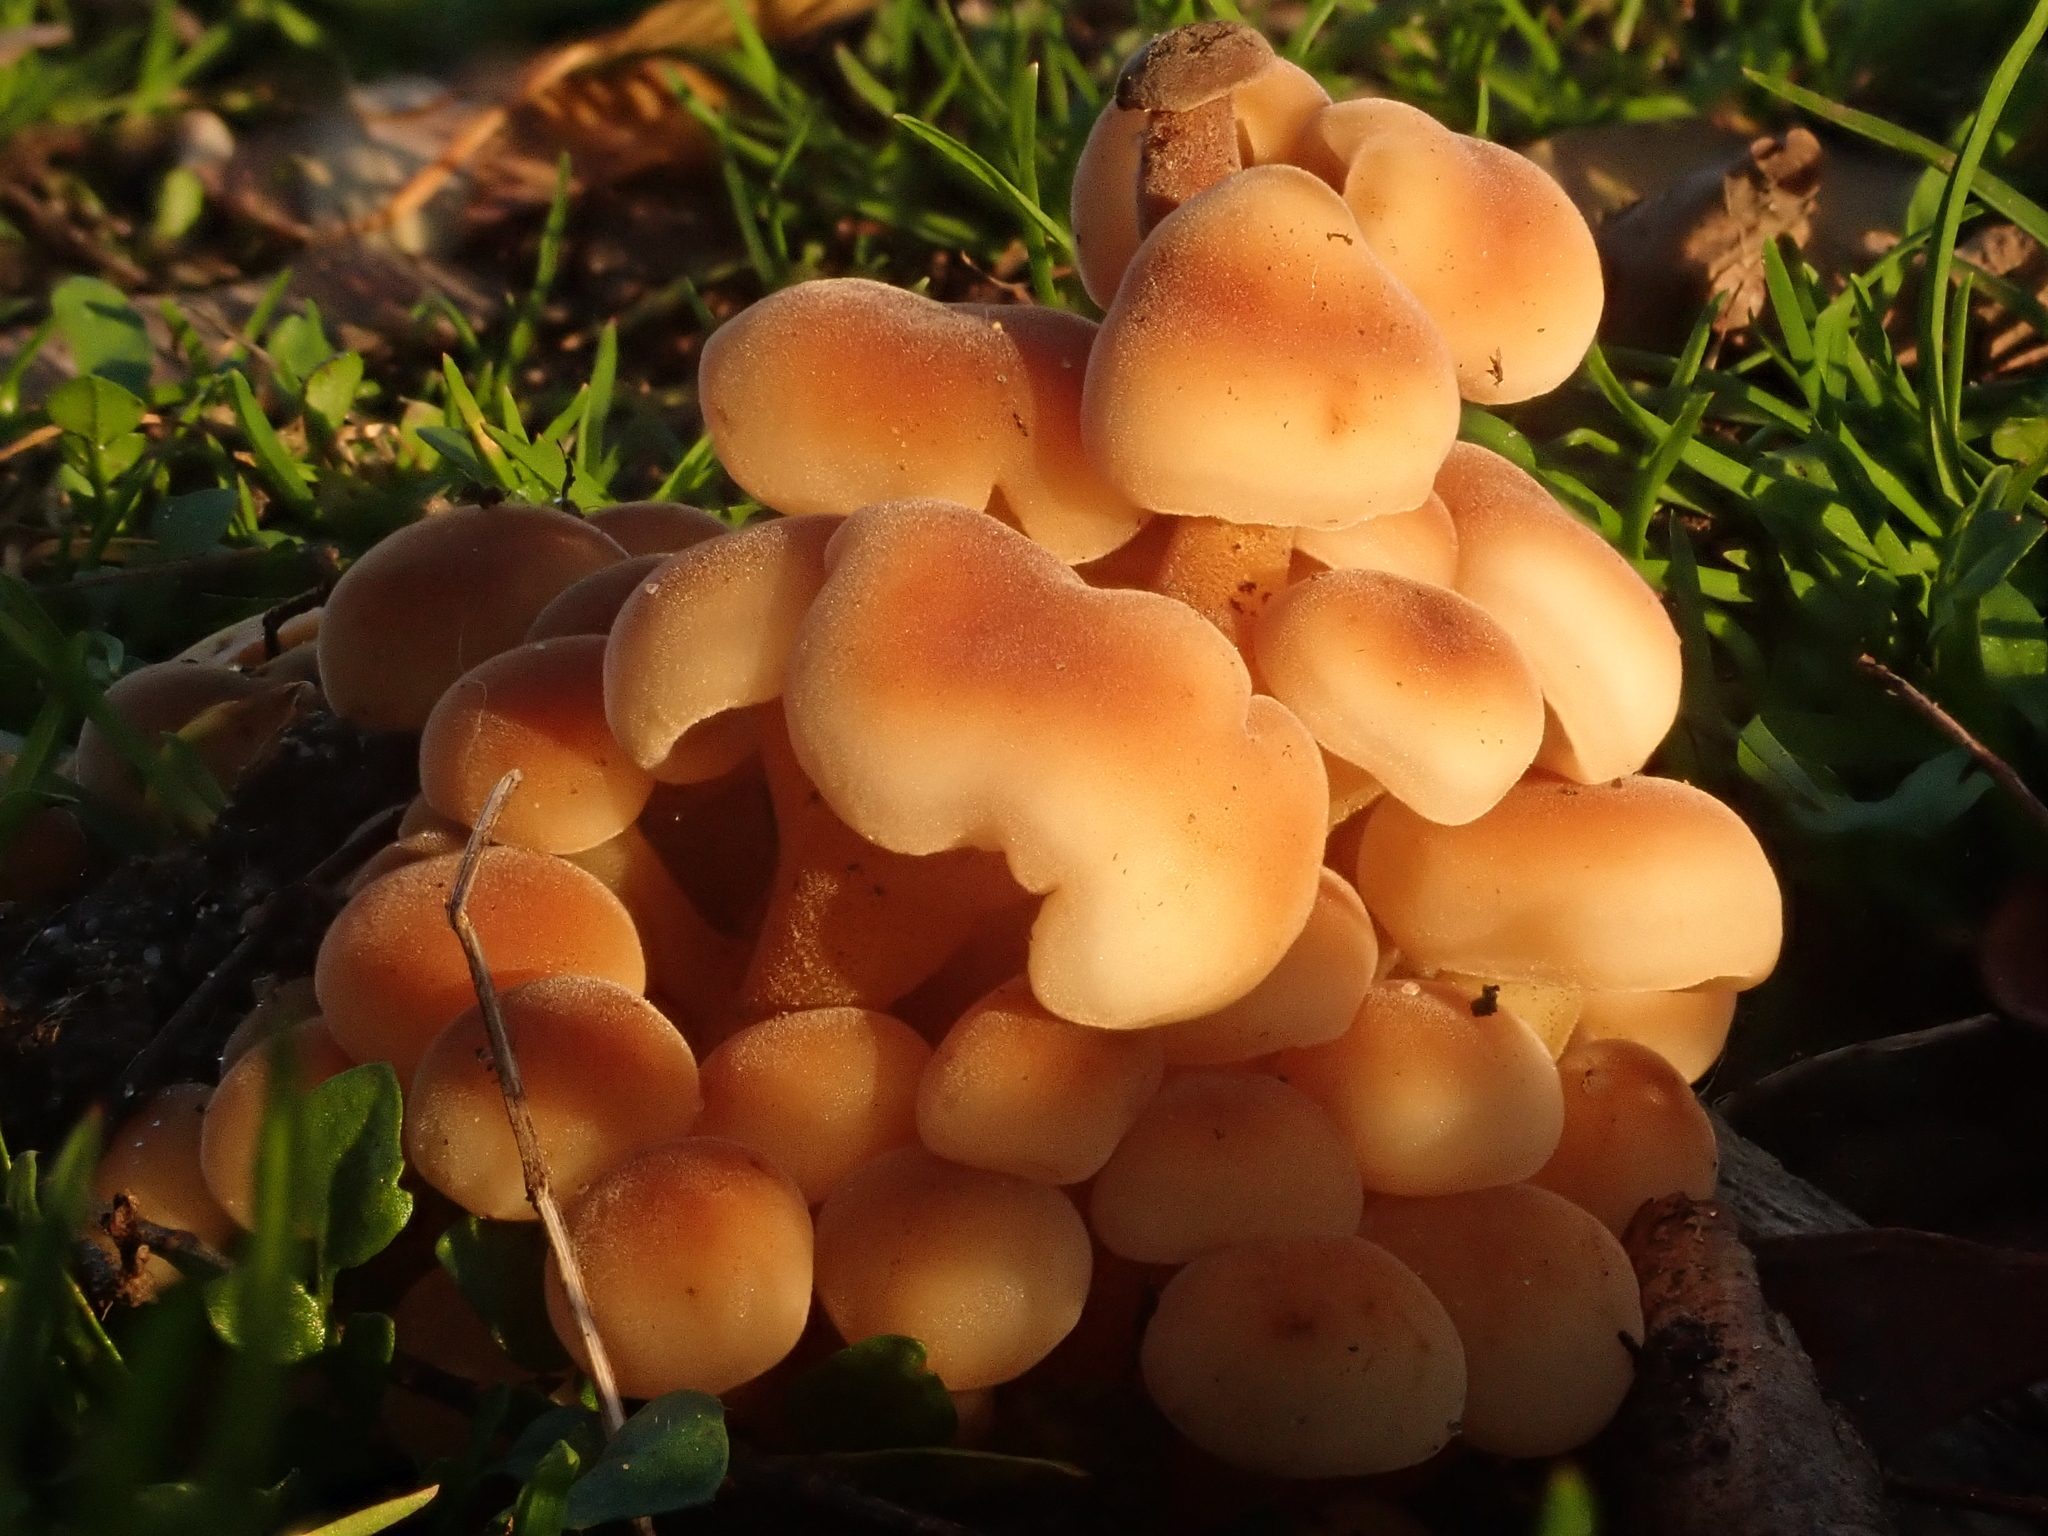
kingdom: Fungi
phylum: Basidiomycota
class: Agaricomycetes
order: Agaricales
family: Physalacriaceae
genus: Flammulina
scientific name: Flammulina
